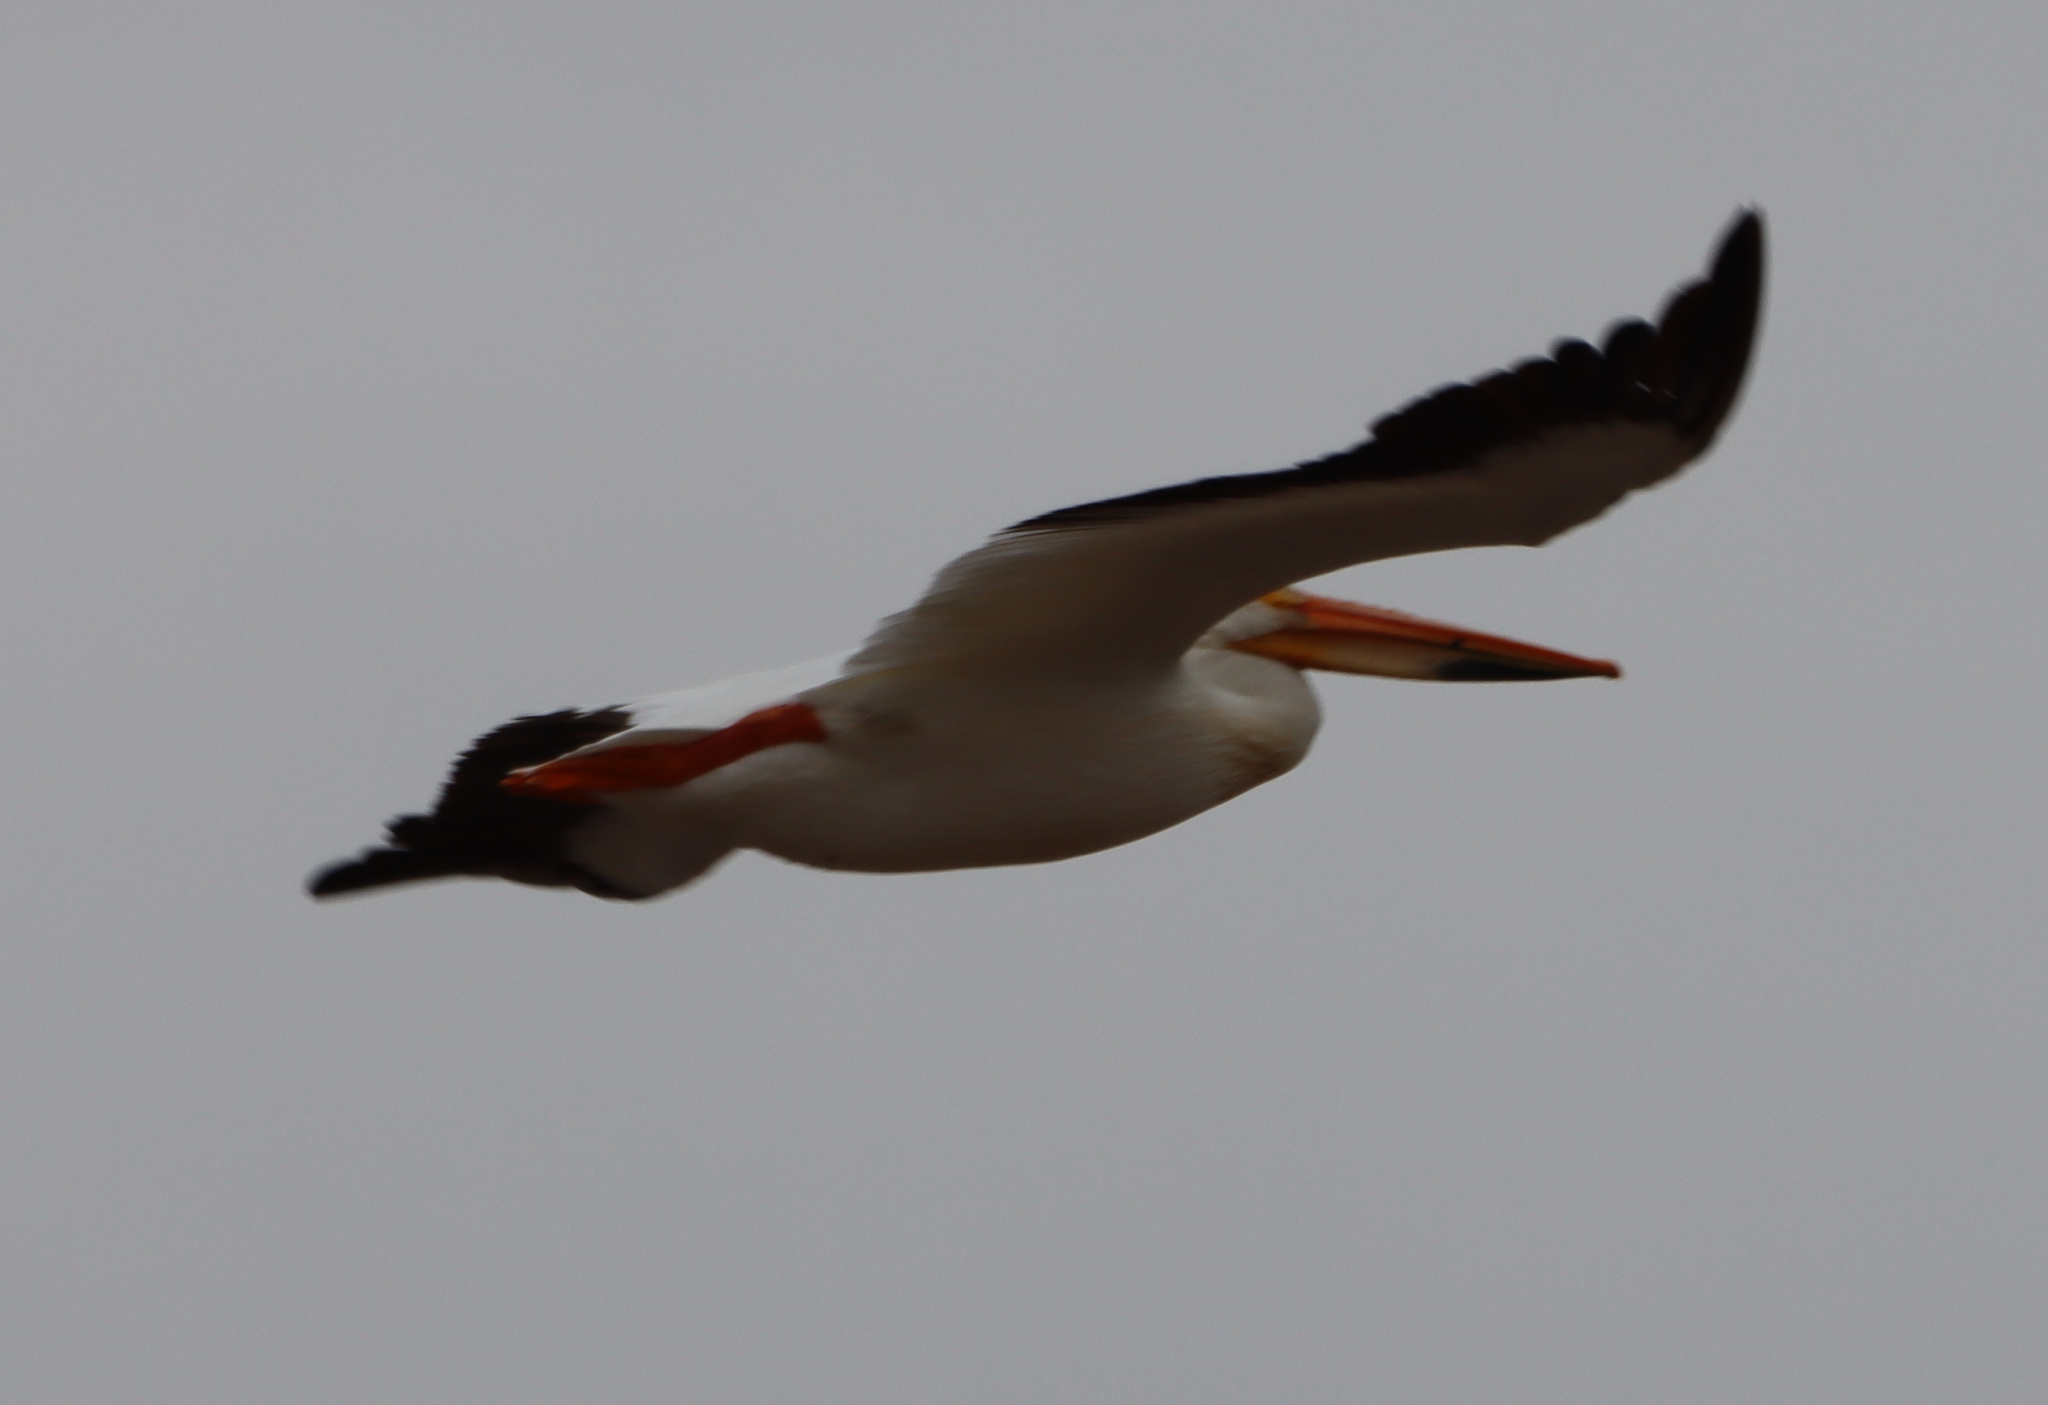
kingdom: Animalia
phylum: Chordata
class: Aves
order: Pelecaniformes
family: Pelecanidae
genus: Pelecanus
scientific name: Pelecanus erythrorhynchos
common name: American white pelican
